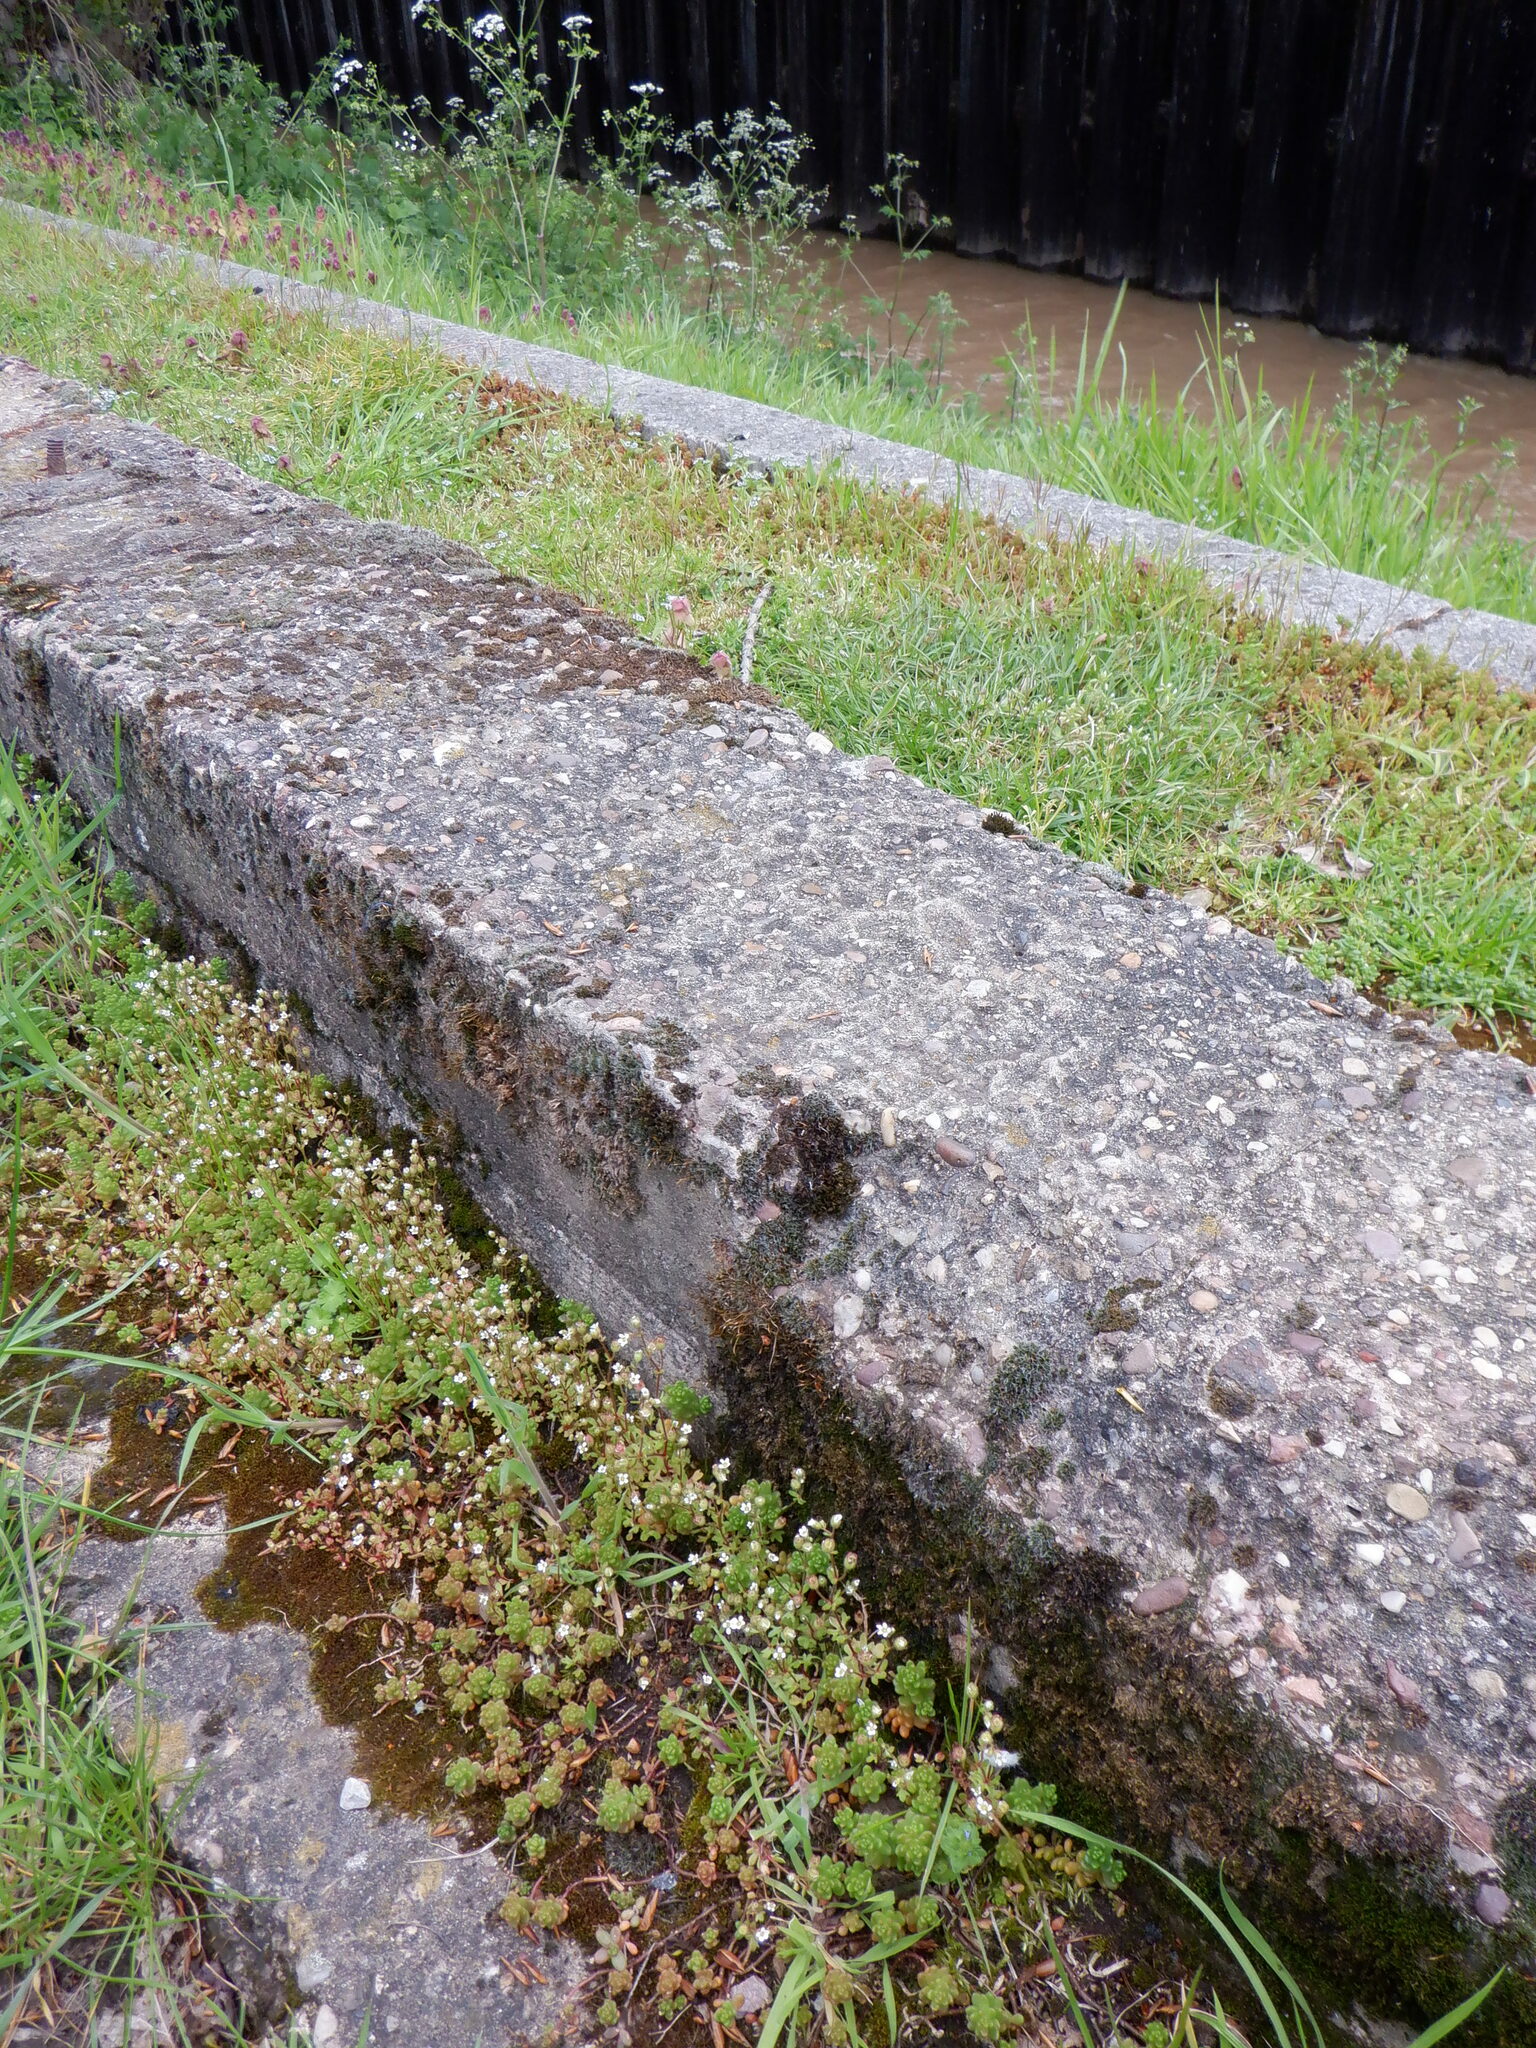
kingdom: Plantae
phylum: Tracheophyta
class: Magnoliopsida
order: Saxifragales
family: Saxifragaceae
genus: Saxifraga
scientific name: Saxifraga tridactylites
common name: Rue-leaved saxifrage
